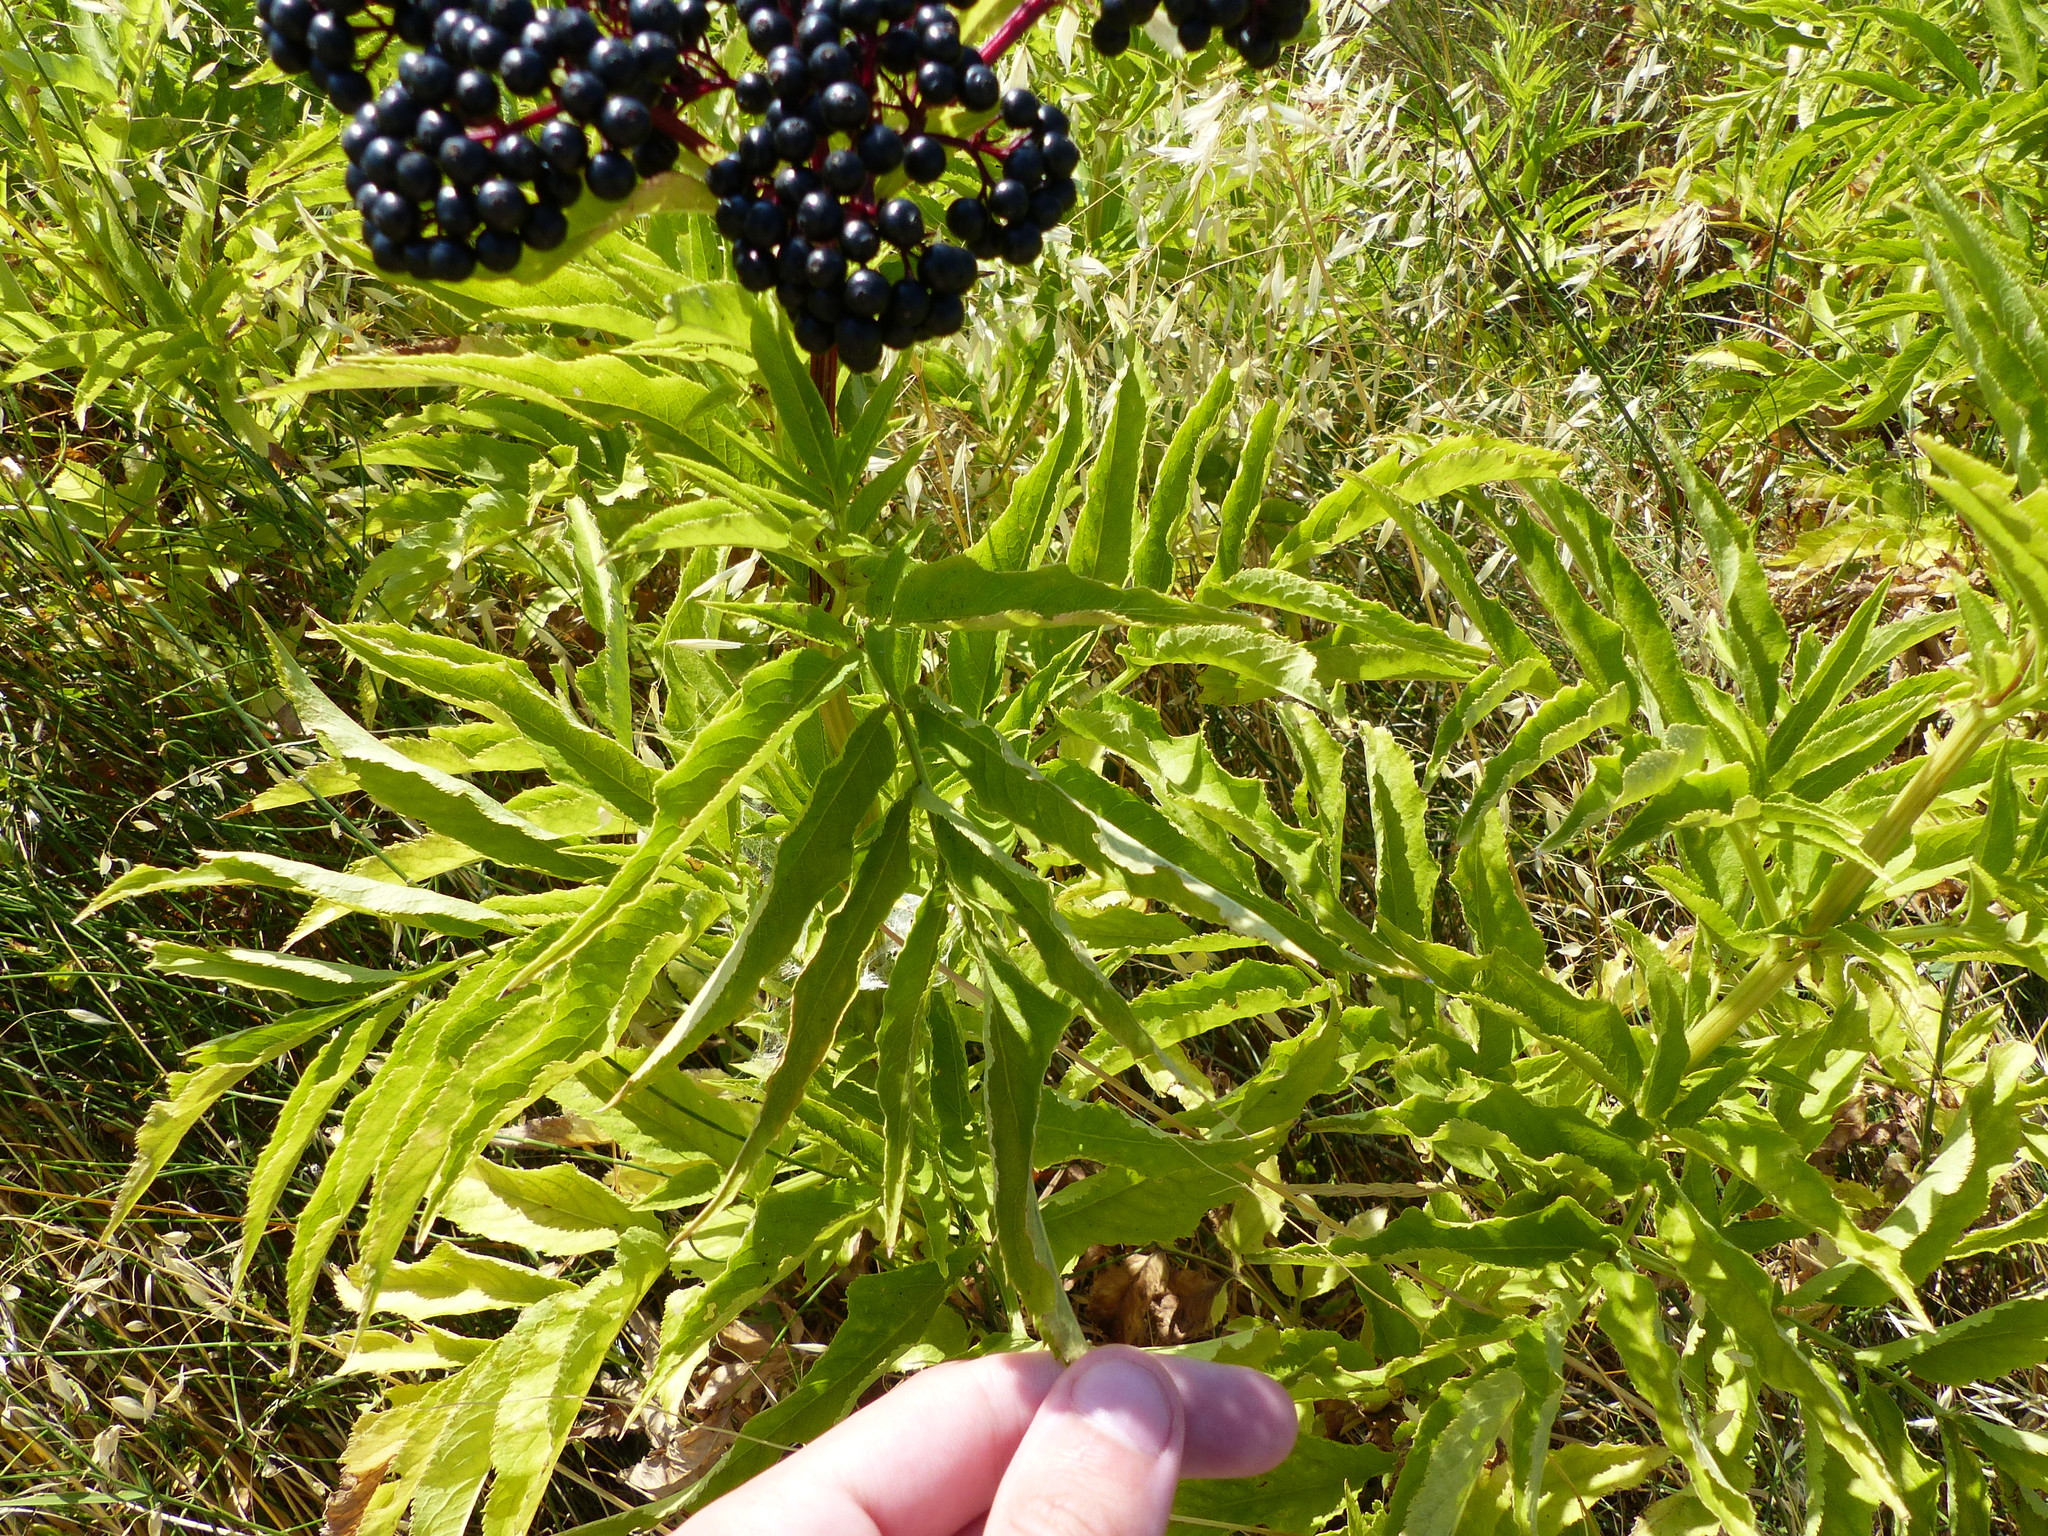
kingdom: Plantae
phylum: Tracheophyta
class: Magnoliopsida
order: Dipsacales
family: Viburnaceae
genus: Sambucus
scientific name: Sambucus ebulus
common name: Dwarf elder
